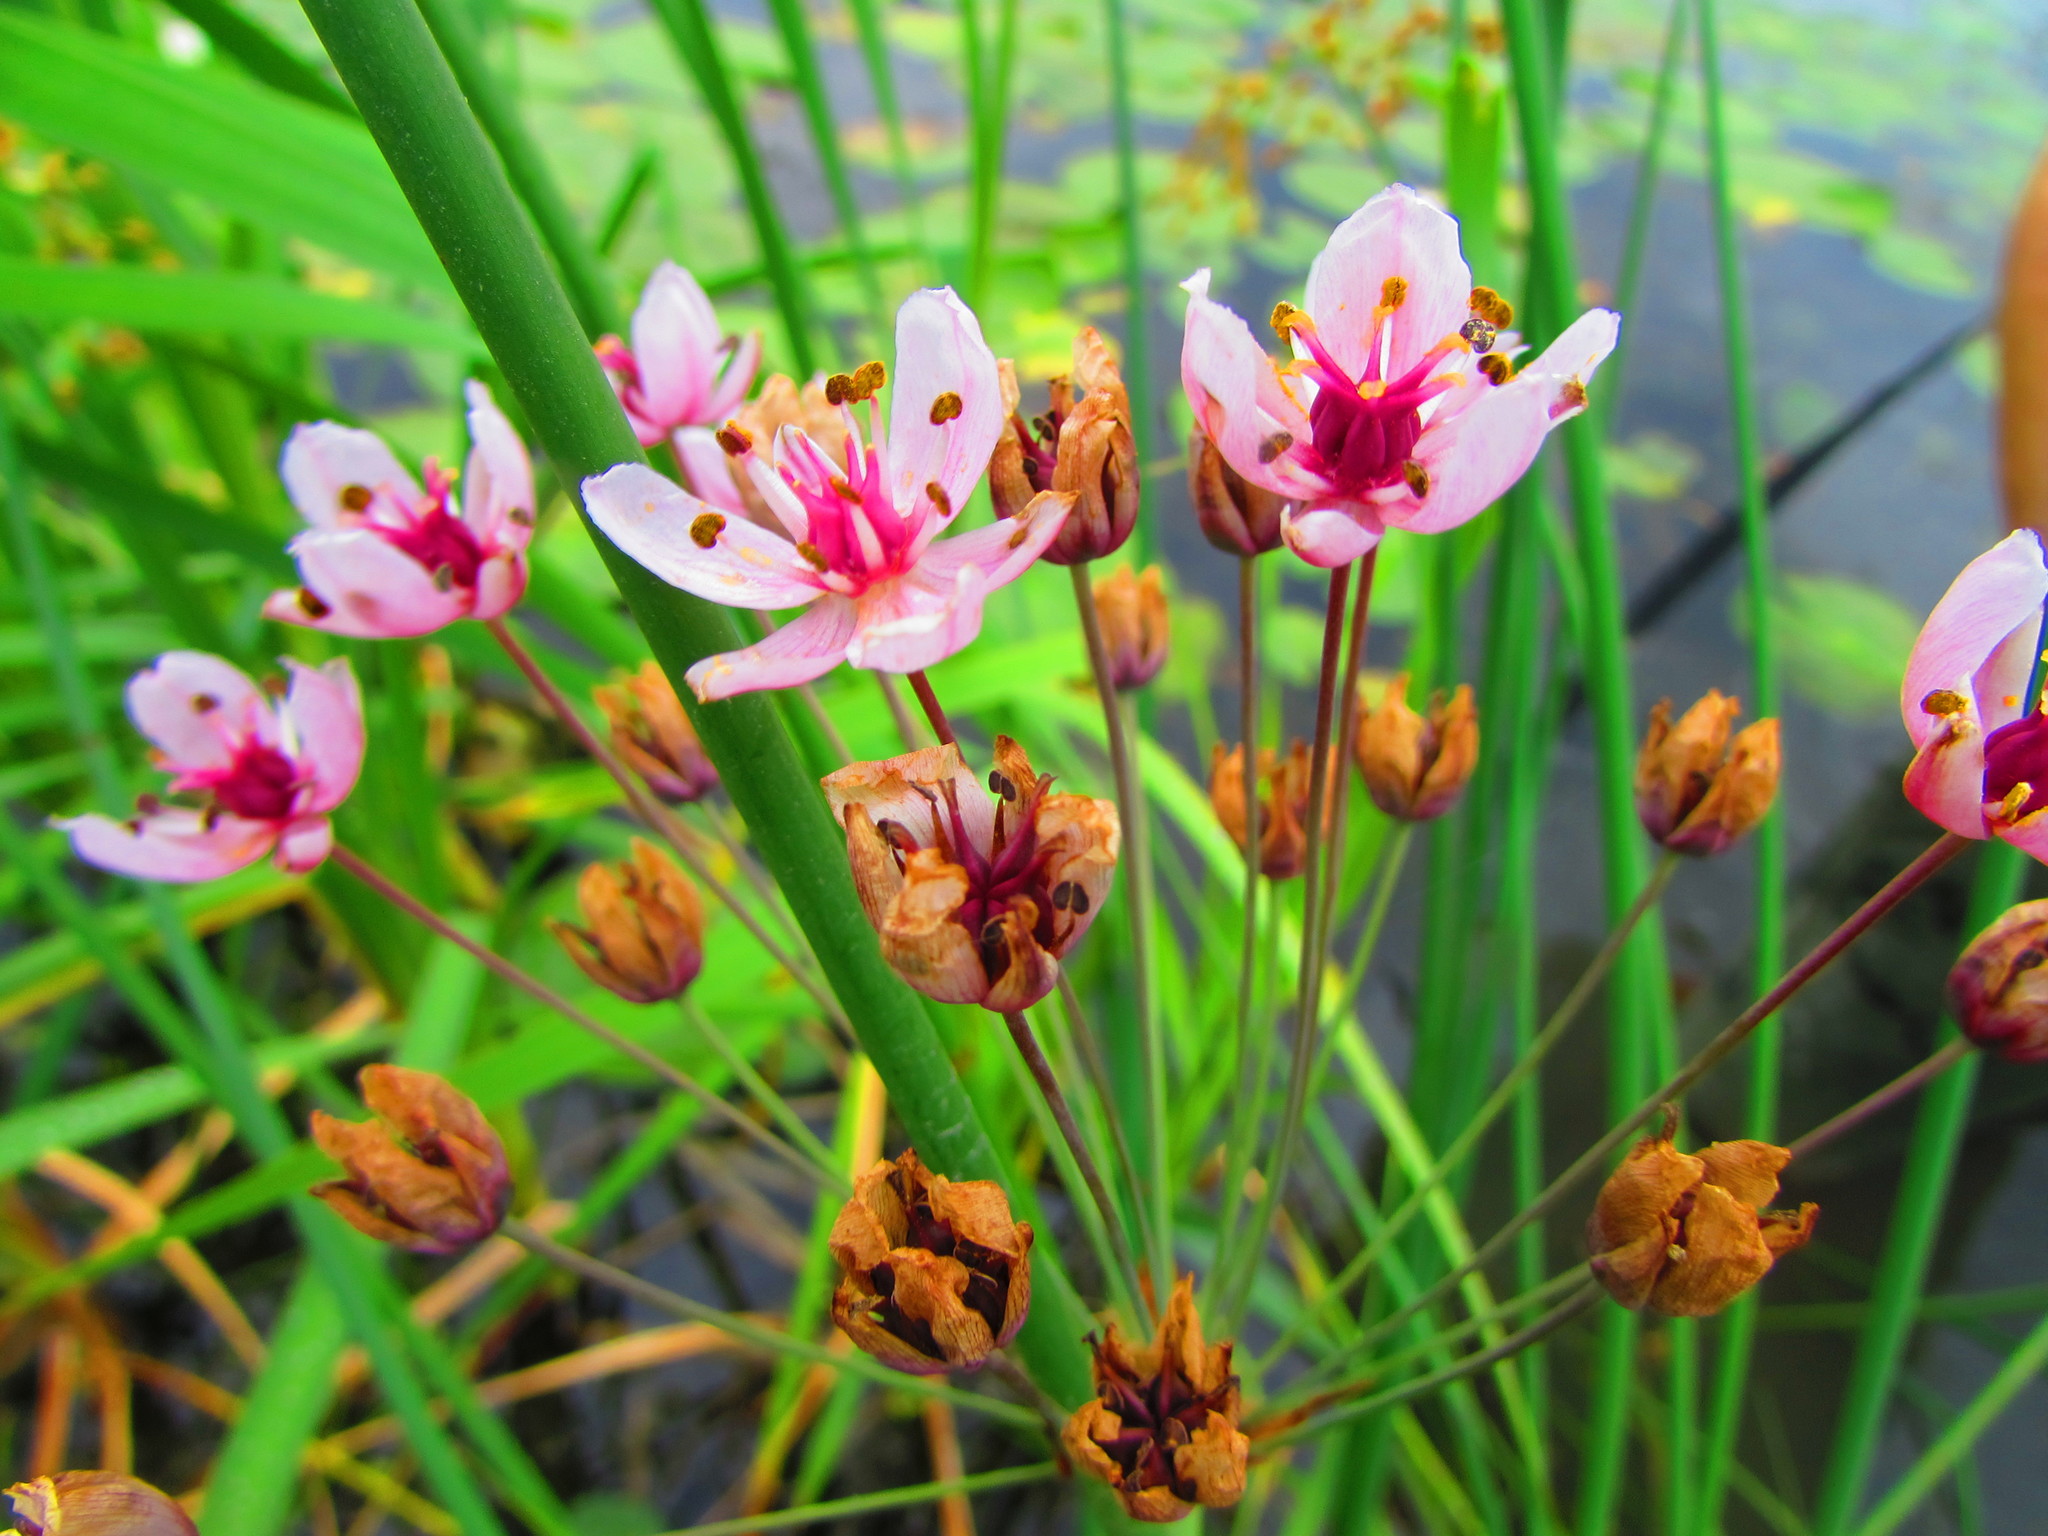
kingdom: Plantae
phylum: Tracheophyta
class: Liliopsida
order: Alismatales
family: Butomaceae
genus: Butomus
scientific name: Butomus umbellatus
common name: Flowering-rush
